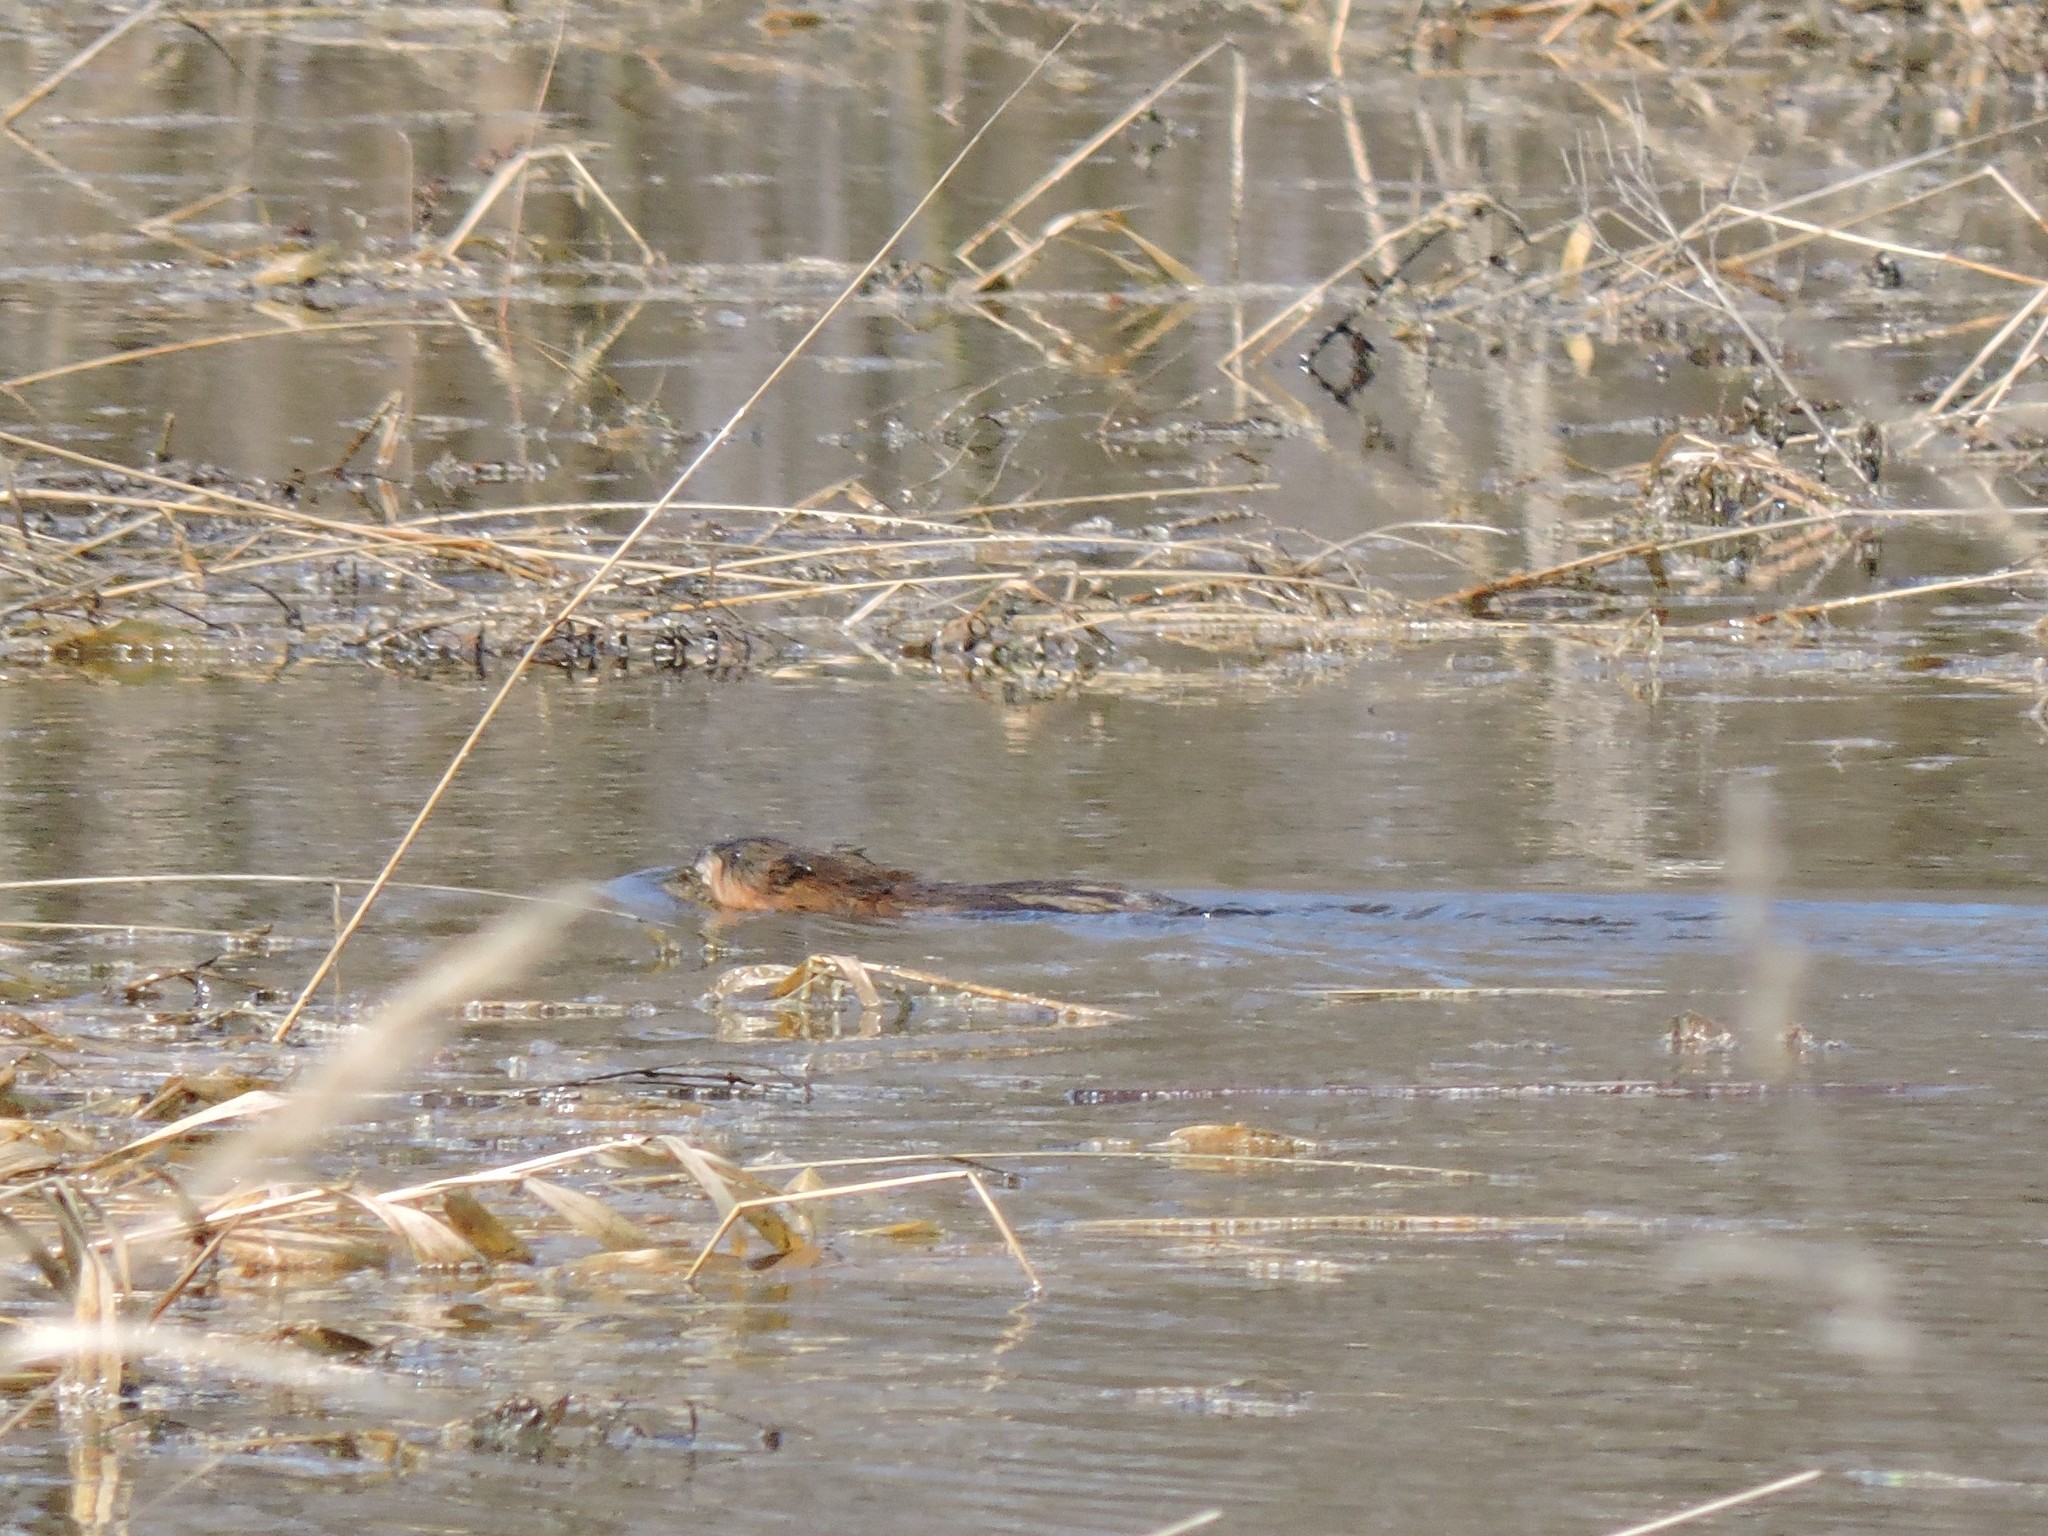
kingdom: Animalia
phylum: Chordata
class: Mammalia
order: Rodentia
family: Cricetidae
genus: Ondatra
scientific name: Ondatra zibethicus
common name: Muskrat
